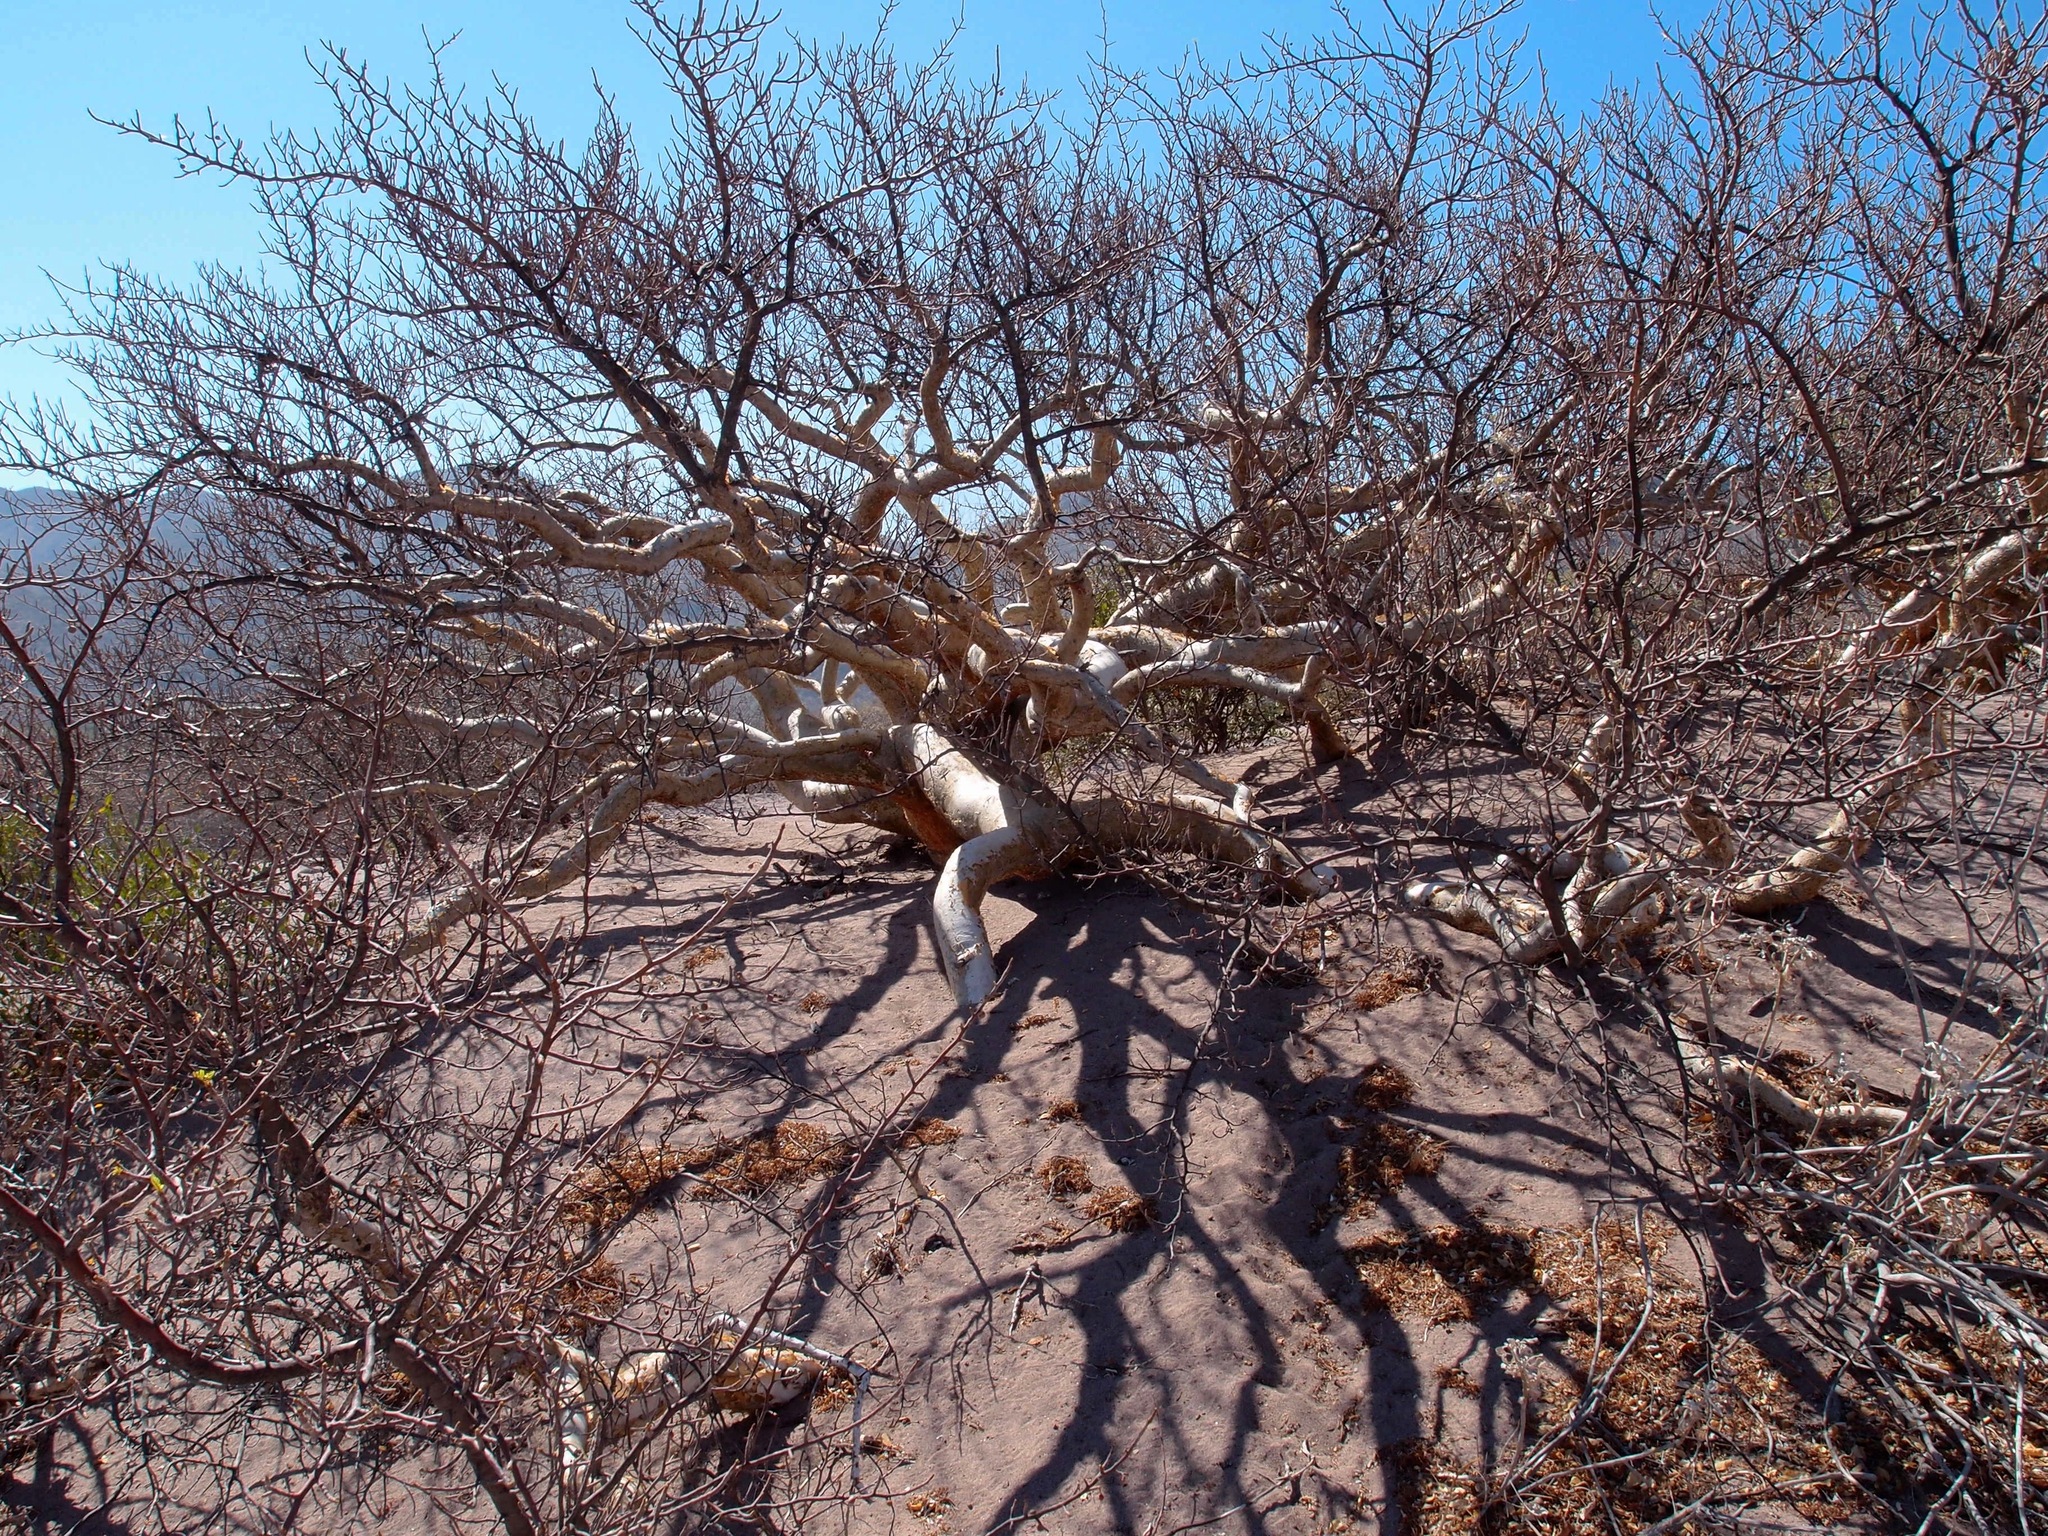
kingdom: Plantae
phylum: Tracheophyta
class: Magnoliopsida
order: Sapindales
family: Burseraceae
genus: Bursera
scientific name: Bursera microphylla
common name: Elephant tree
